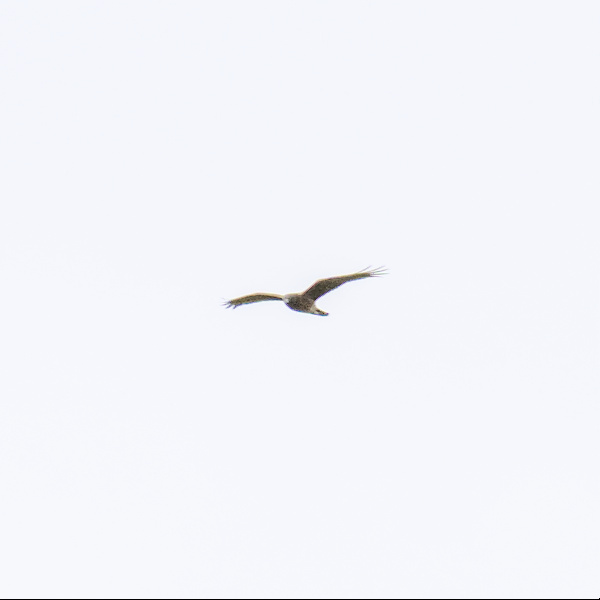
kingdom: Animalia
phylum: Chordata
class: Aves
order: Accipitriformes
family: Accipitridae
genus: Circus
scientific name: Circus approximans
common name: Swamp harrier
